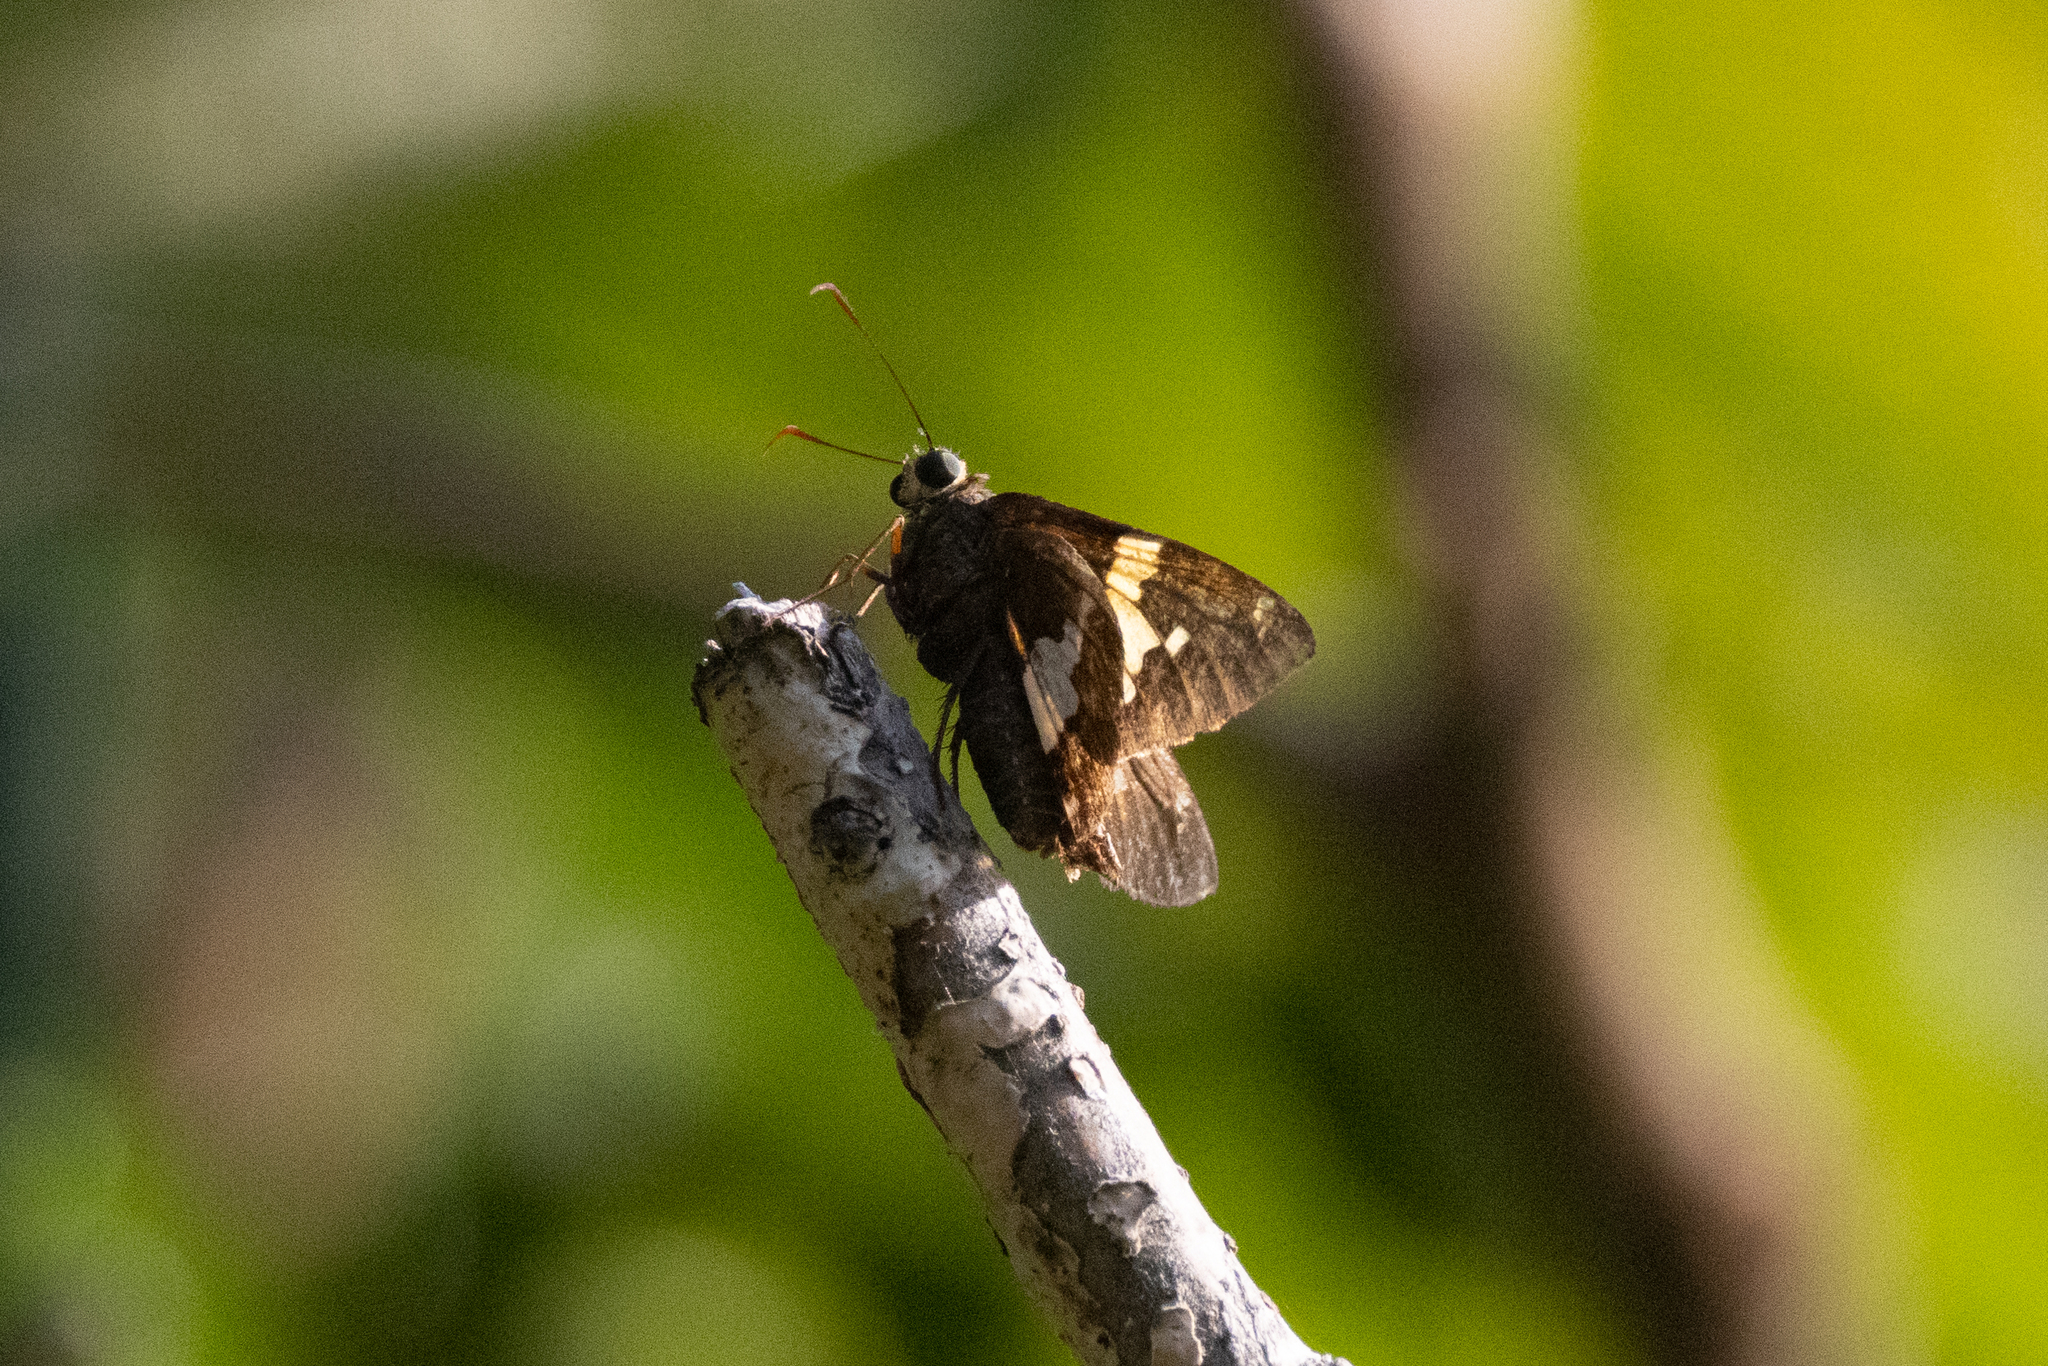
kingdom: Animalia
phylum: Arthropoda
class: Insecta
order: Lepidoptera
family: Hesperiidae
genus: Epargyreus
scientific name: Epargyreus clarus
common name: Silver-spotted skipper
